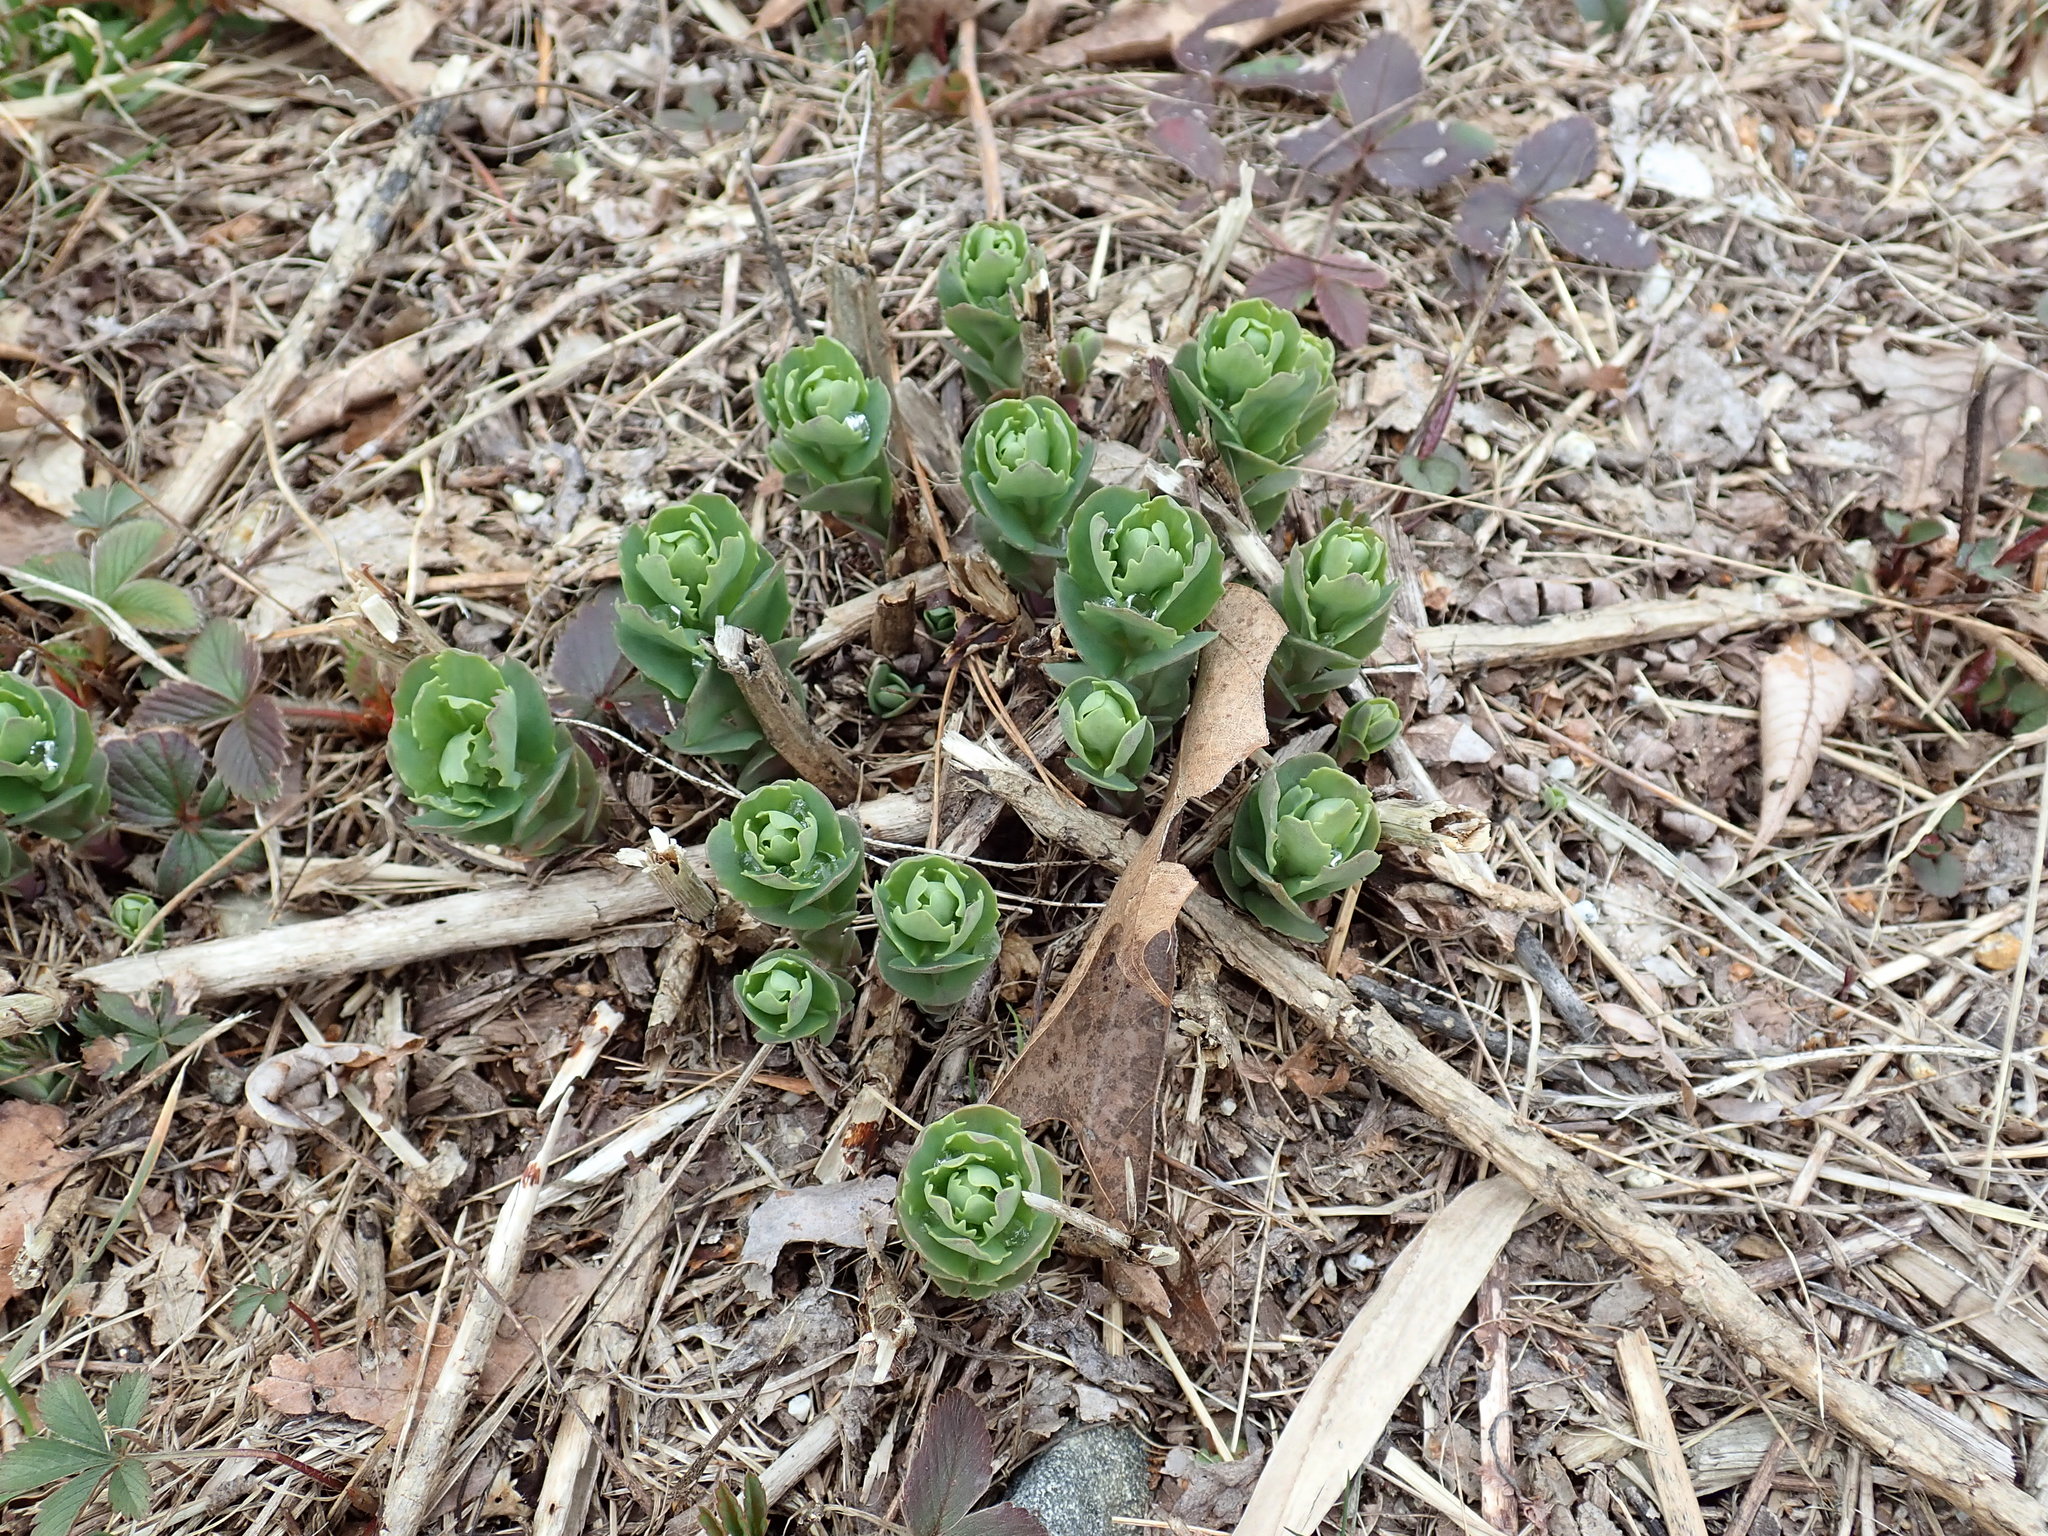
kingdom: Plantae
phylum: Tracheophyta
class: Magnoliopsida
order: Saxifragales
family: Crassulaceae
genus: Hylotelephium
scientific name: Hylotelephium telephium
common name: Live-forever
